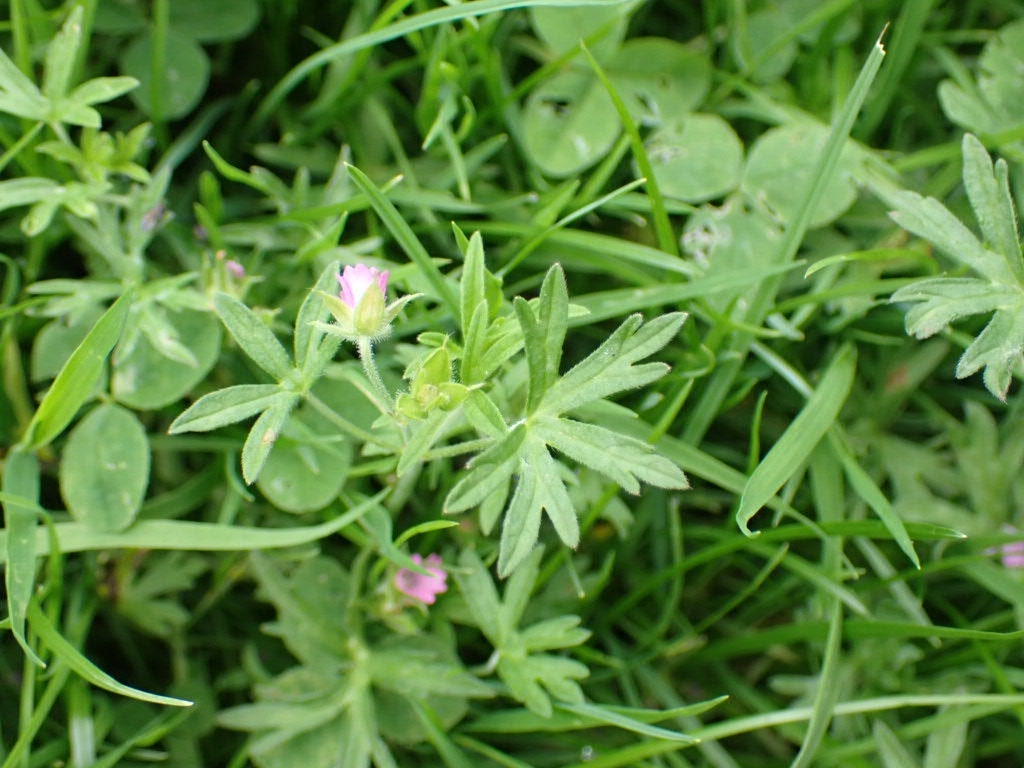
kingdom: Plantae
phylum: Tracheophyta
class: Magnoliopsida
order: Geraniales
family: Geraniaceae
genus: Geranium
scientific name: Geranium dissectum
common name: Cut-leaved crane's-bill
